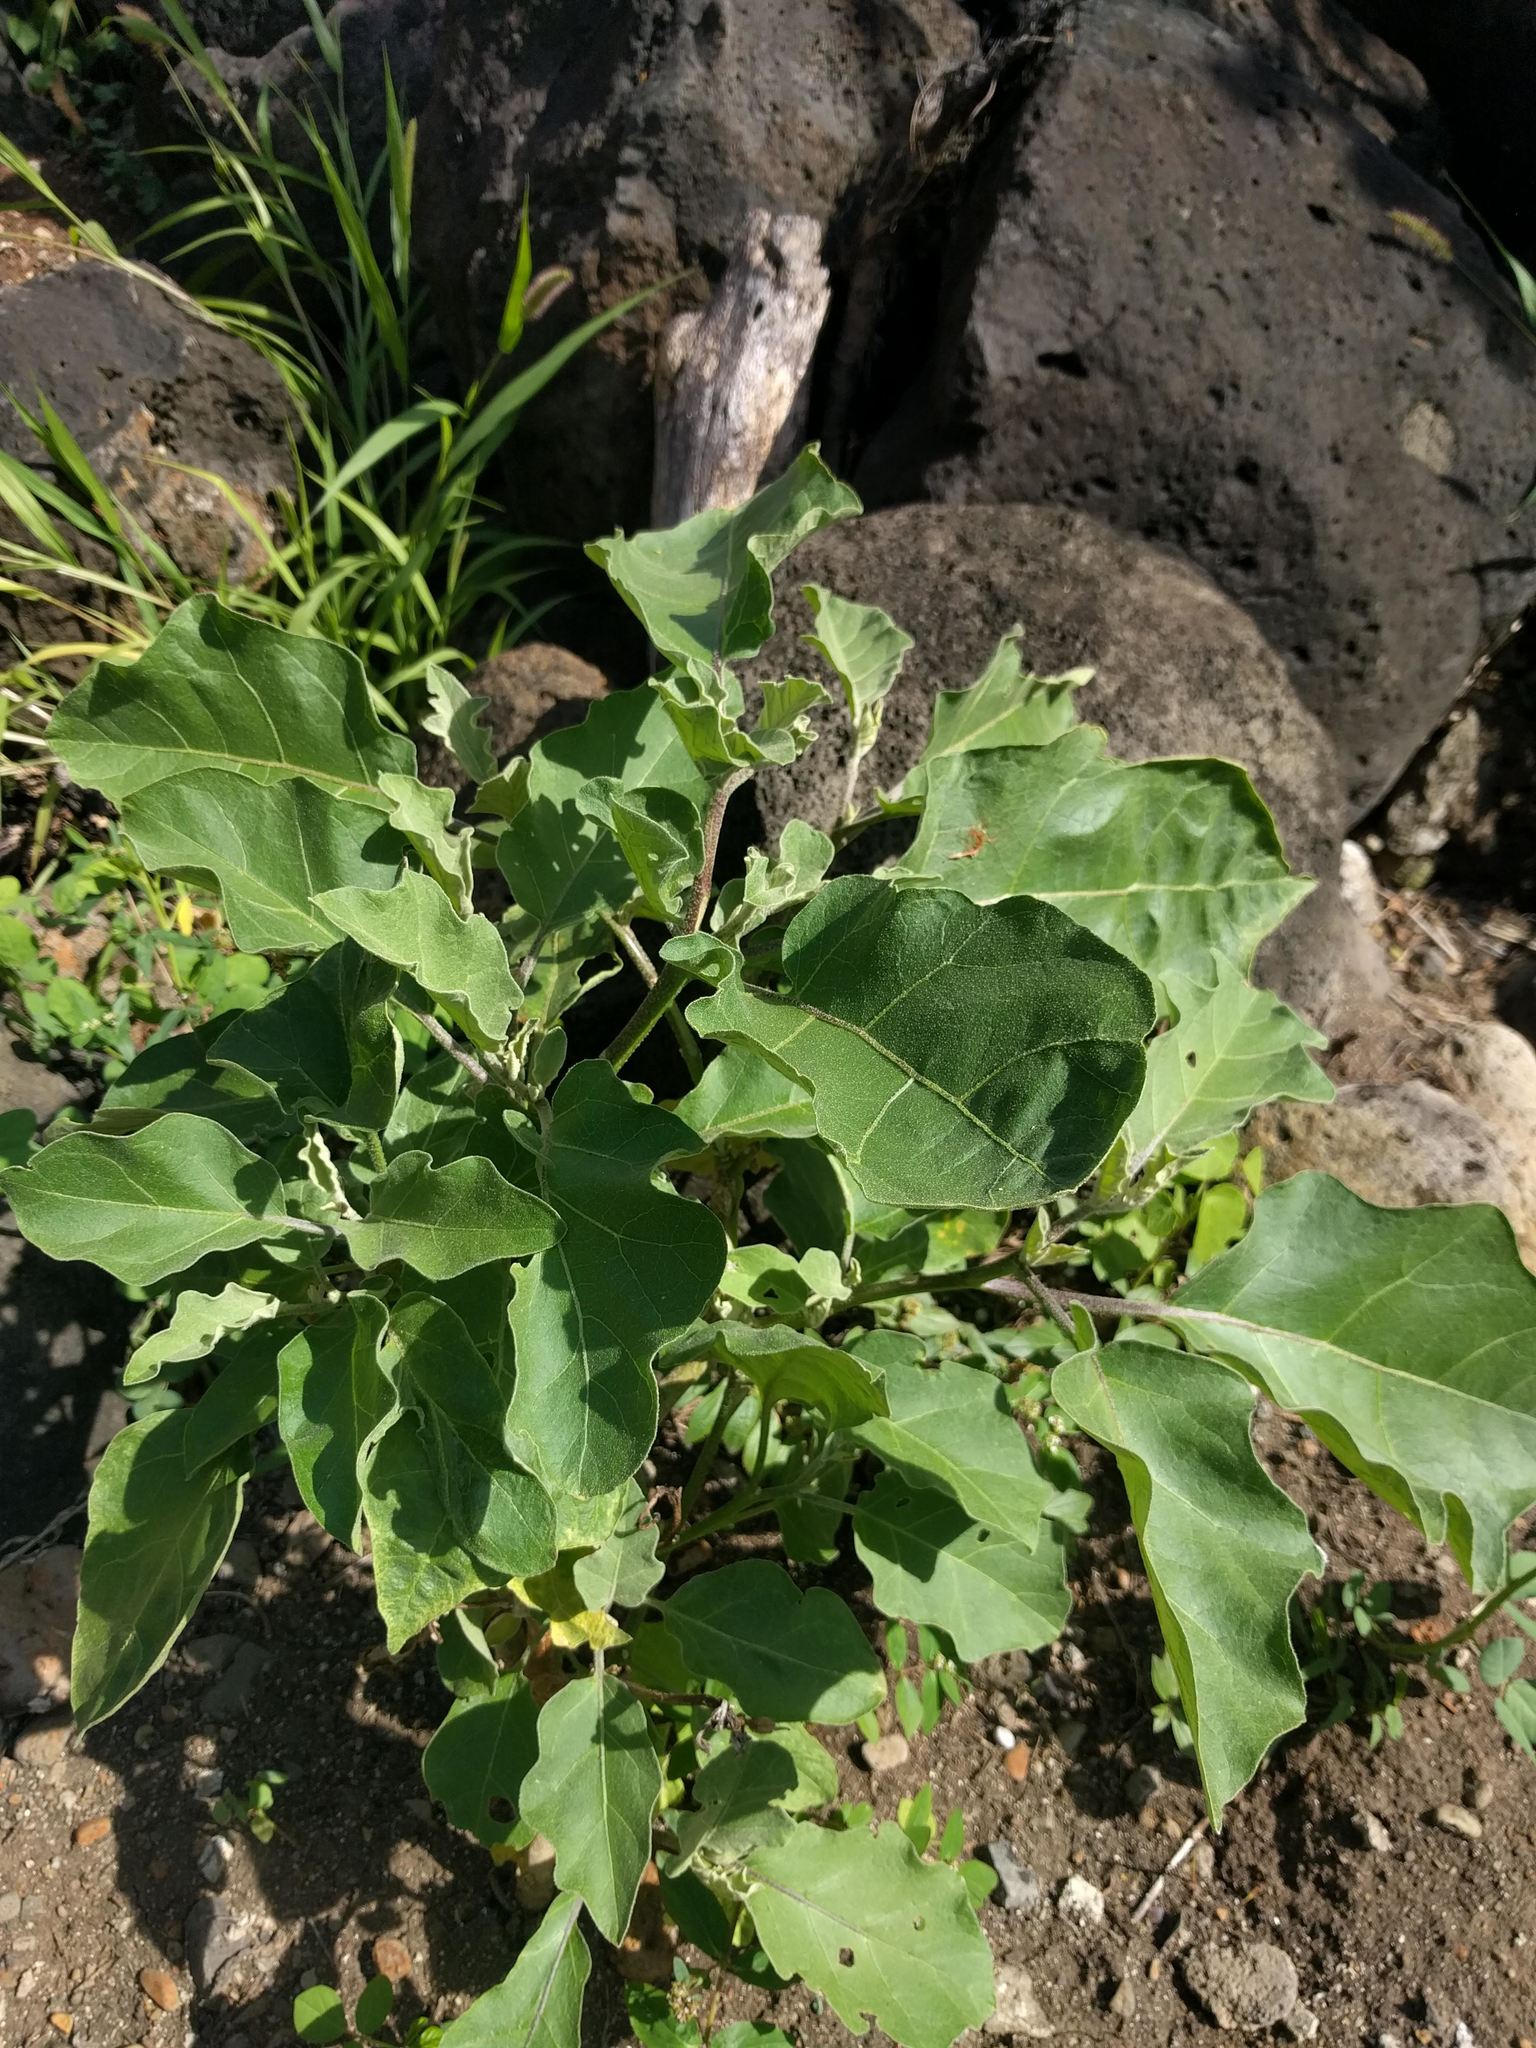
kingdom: Plantae
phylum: Tracheophyta
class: Magnoliopsida
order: Solanales
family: Solanaceae
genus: Solanum
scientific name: Solanum melongena
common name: Eggplant
